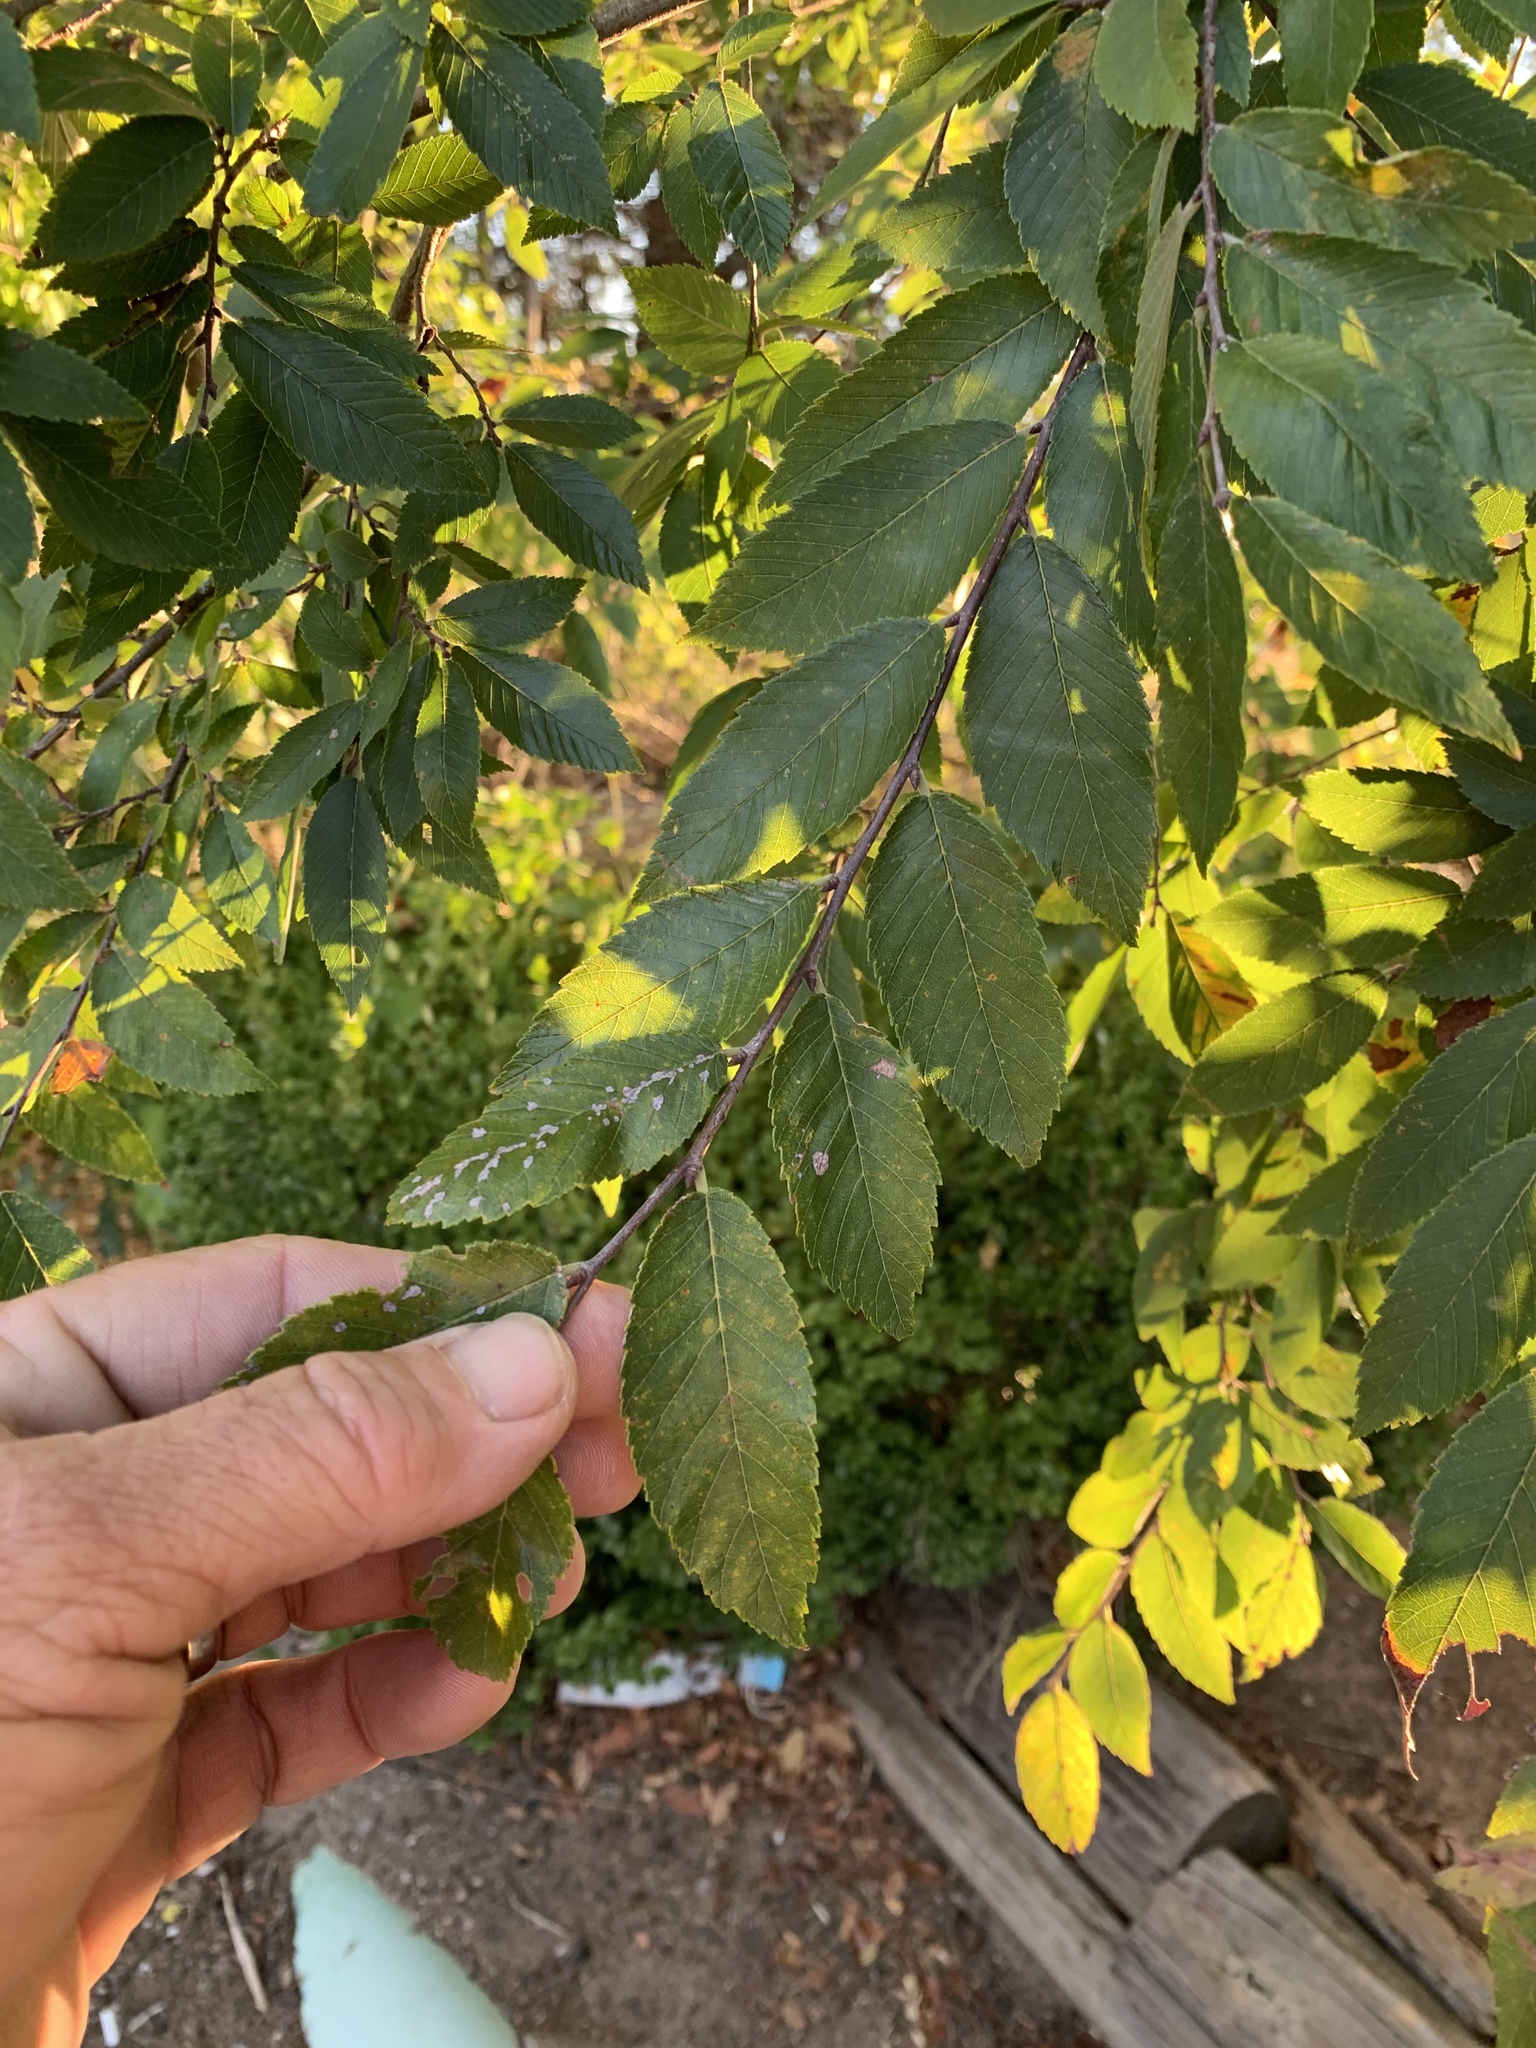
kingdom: Plantae
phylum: Tracheophyta
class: Magnoliopsida
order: Rosales
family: Ulmaceae
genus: Ulmus
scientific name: Ulmus alata
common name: Winged elm
